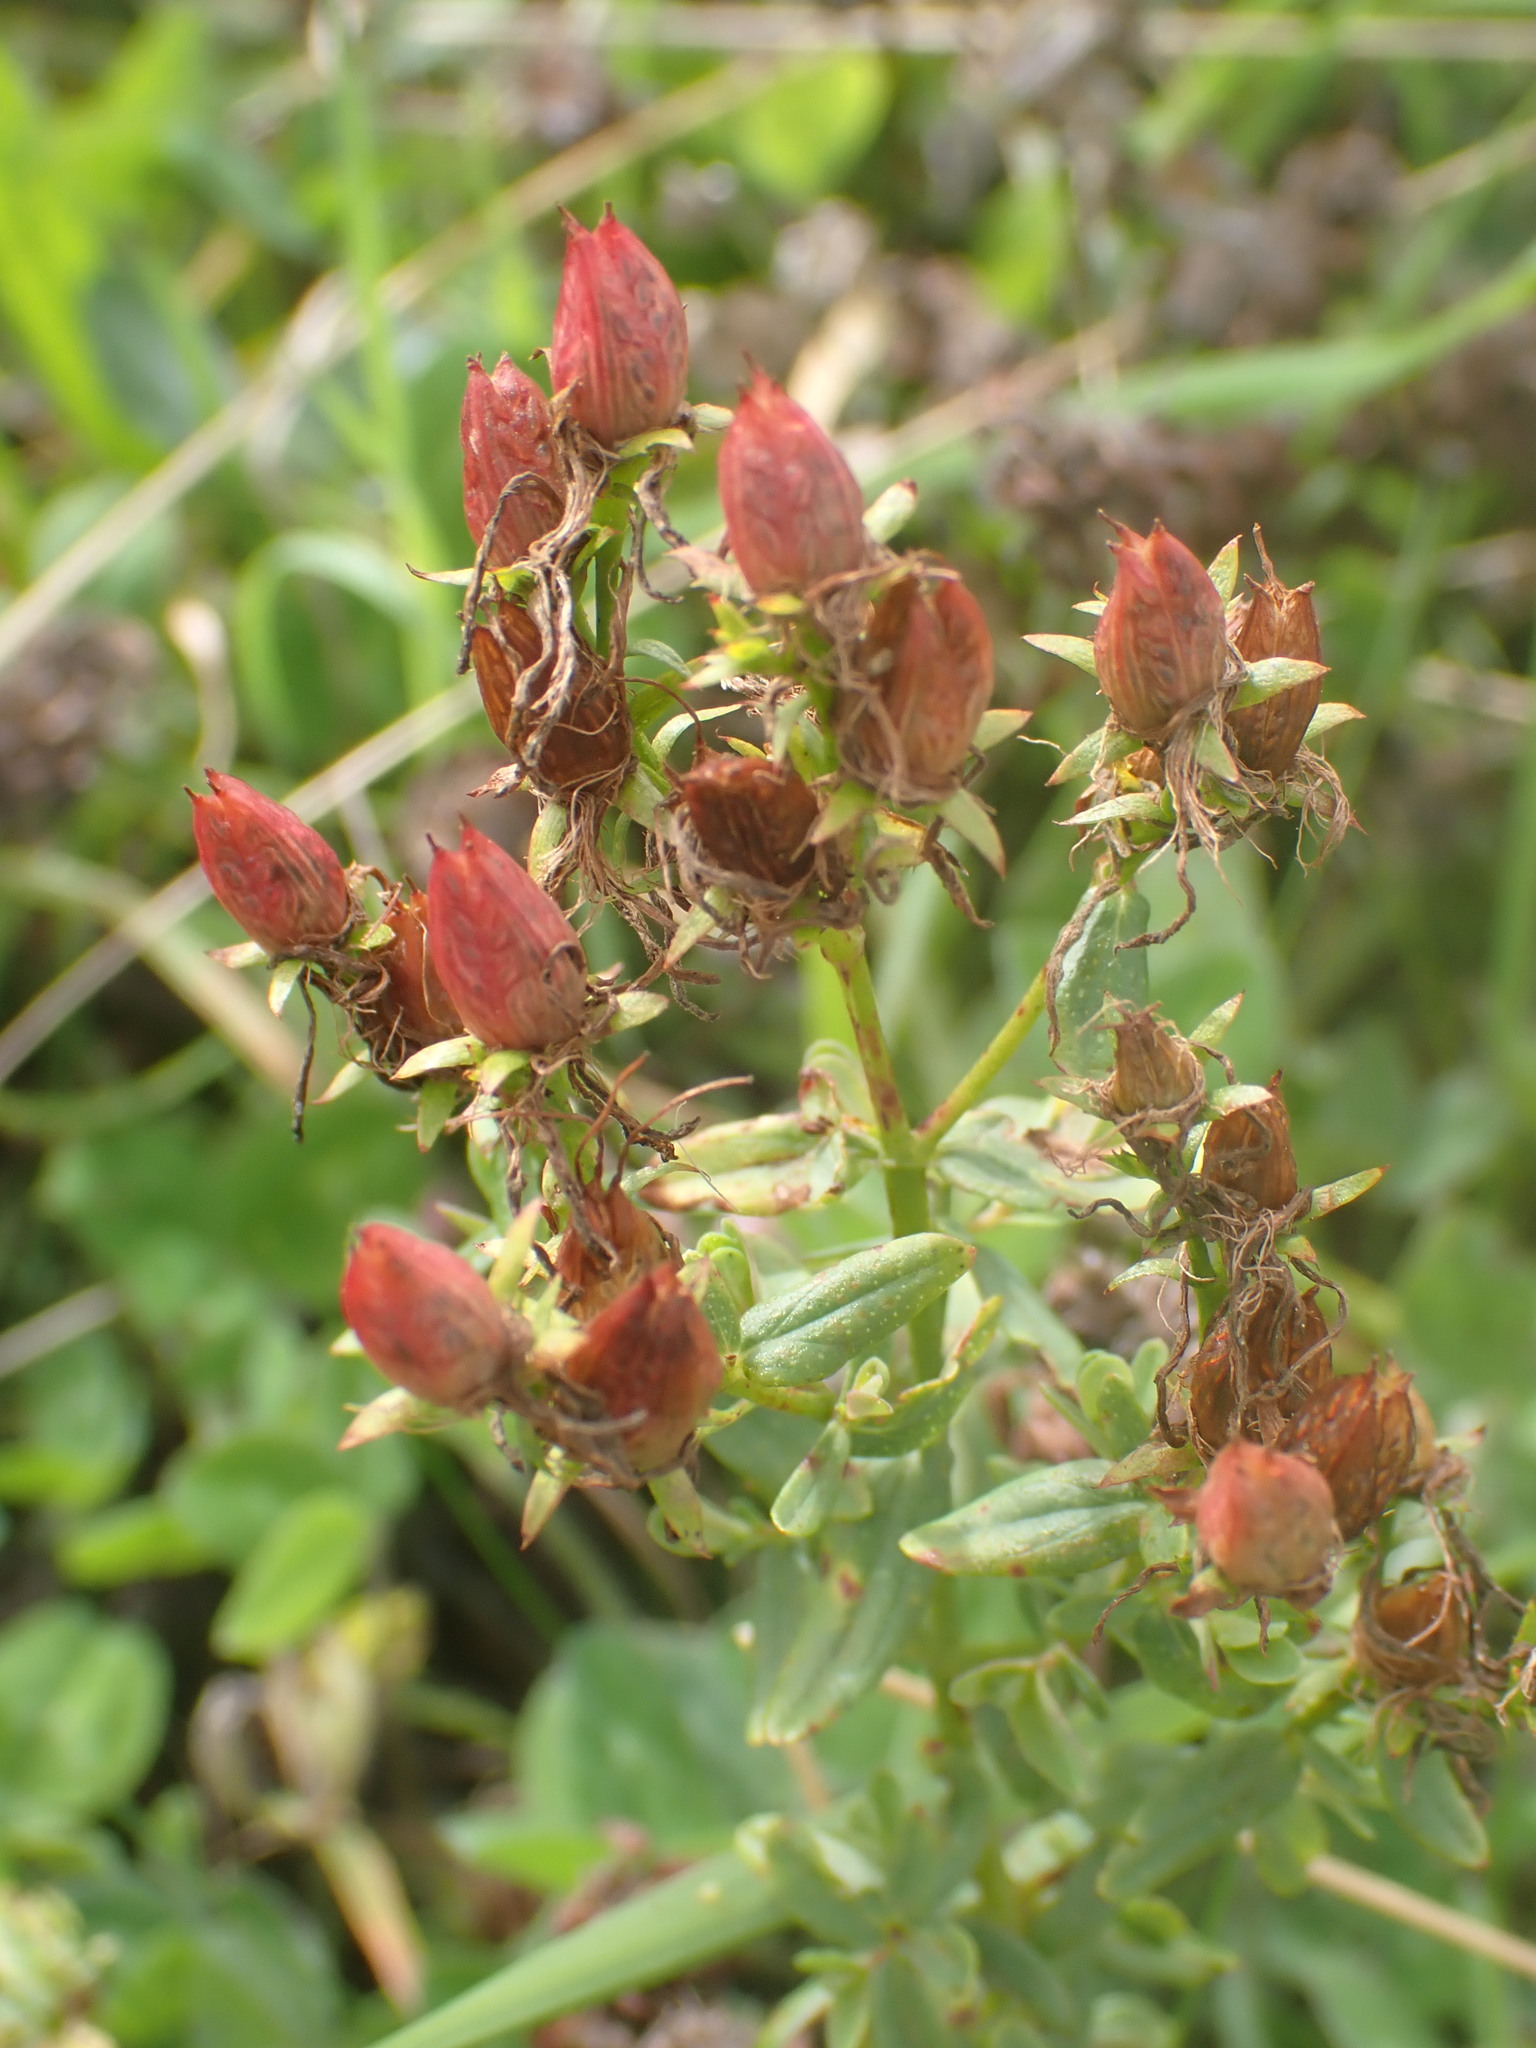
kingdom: Plantae
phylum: Tracheophyta
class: Magnoliopsida
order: Malpighiales
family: Hypericaceae
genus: Hypericum
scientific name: Hypericum perforatum
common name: Common st. johnswort
